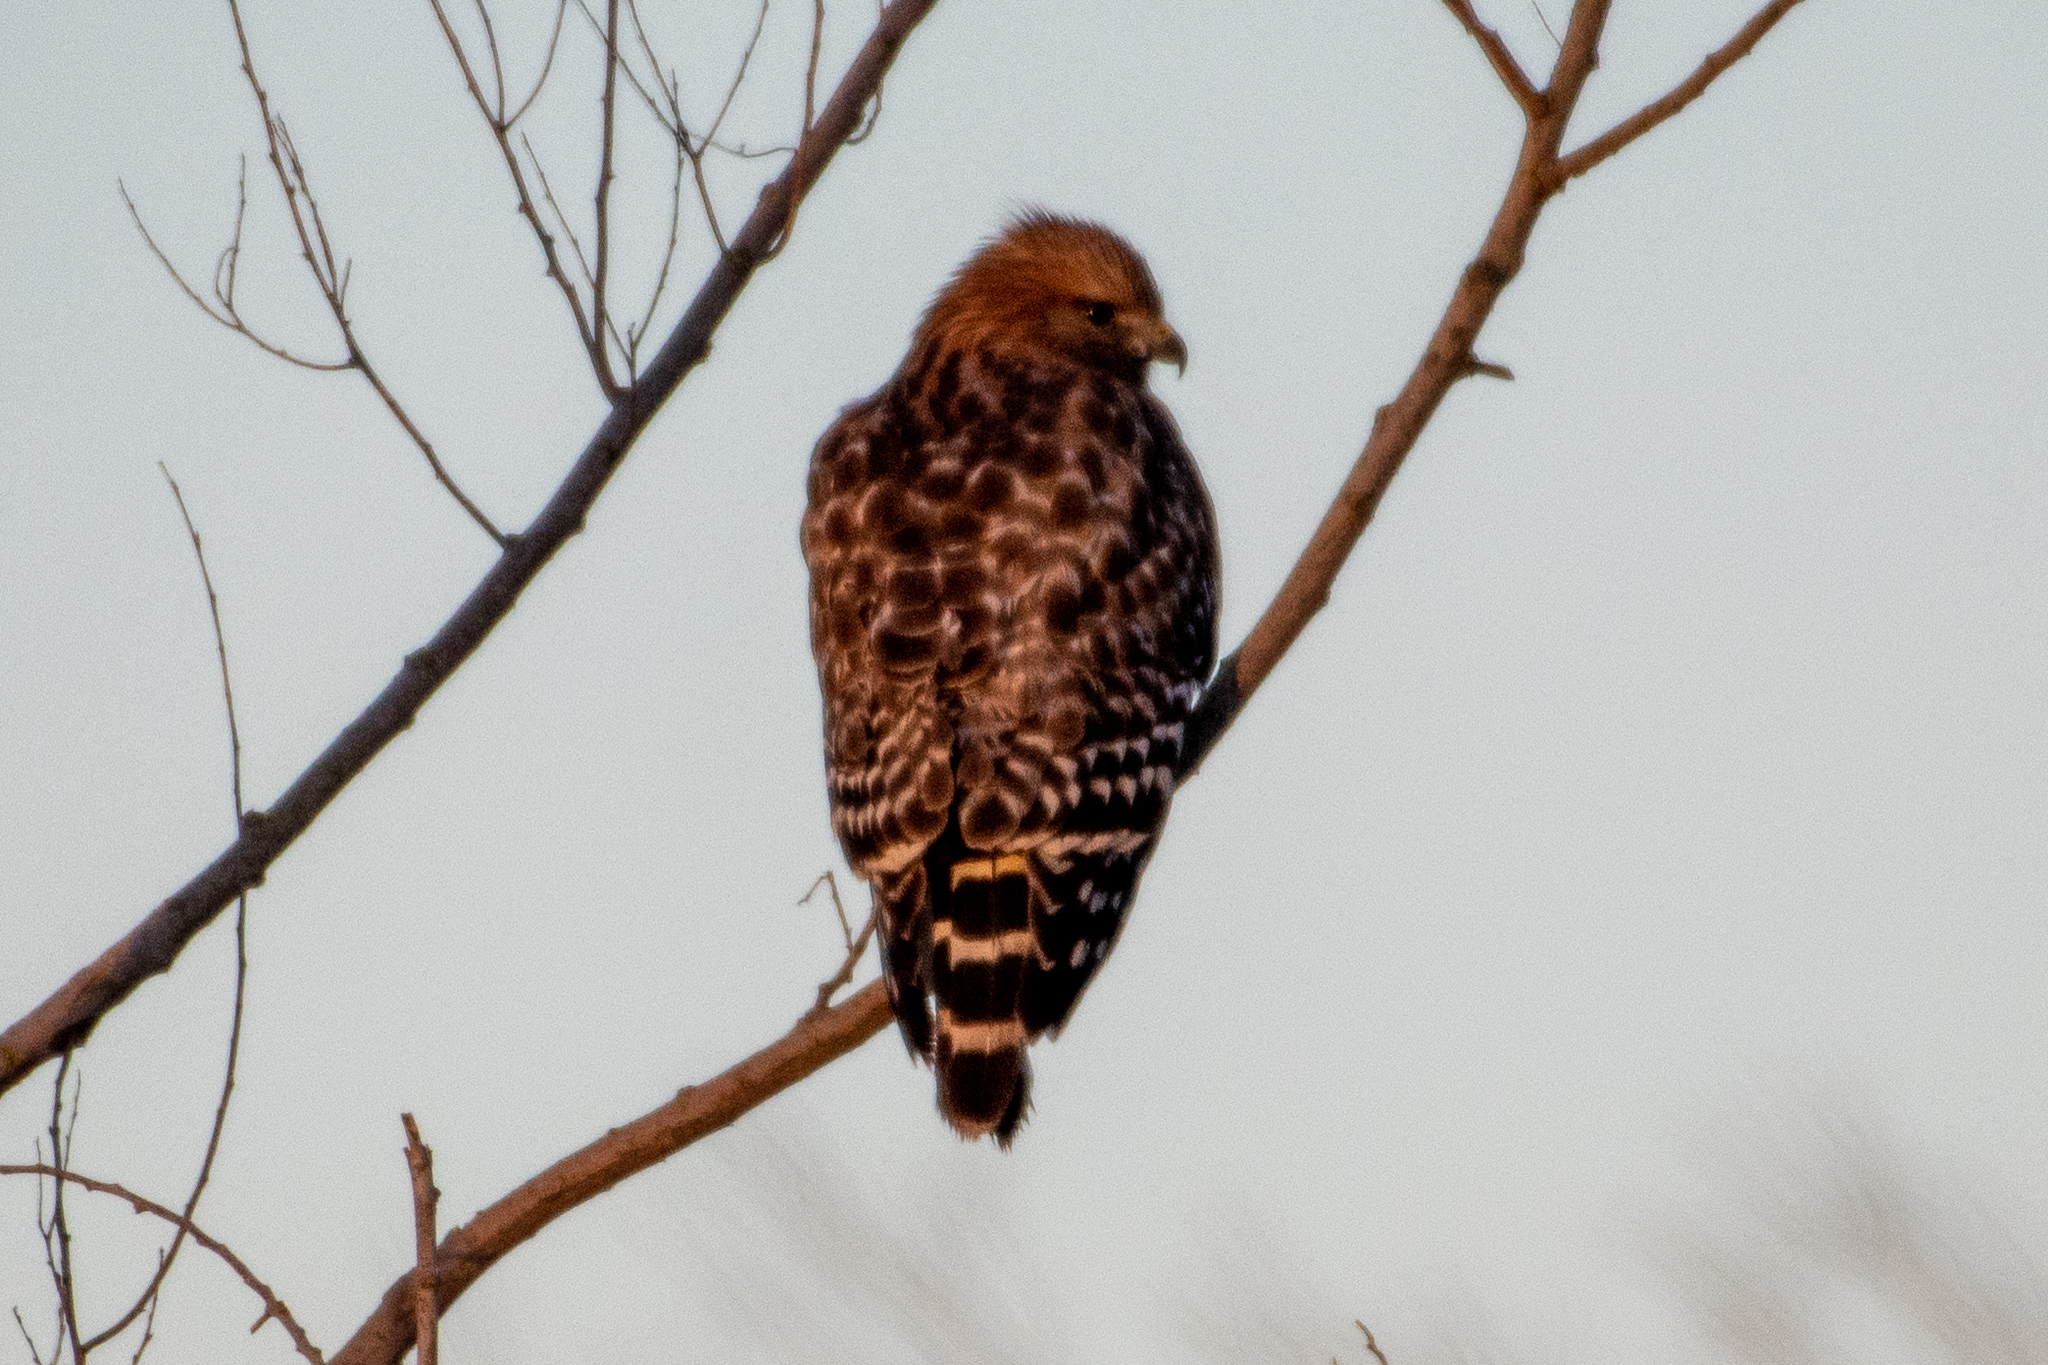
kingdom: Animalia
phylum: Chordata
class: Aves
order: Accipitriformes
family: Accipitridae
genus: Buteo
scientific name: Buteo lineatus
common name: Red-shouldered hawk
